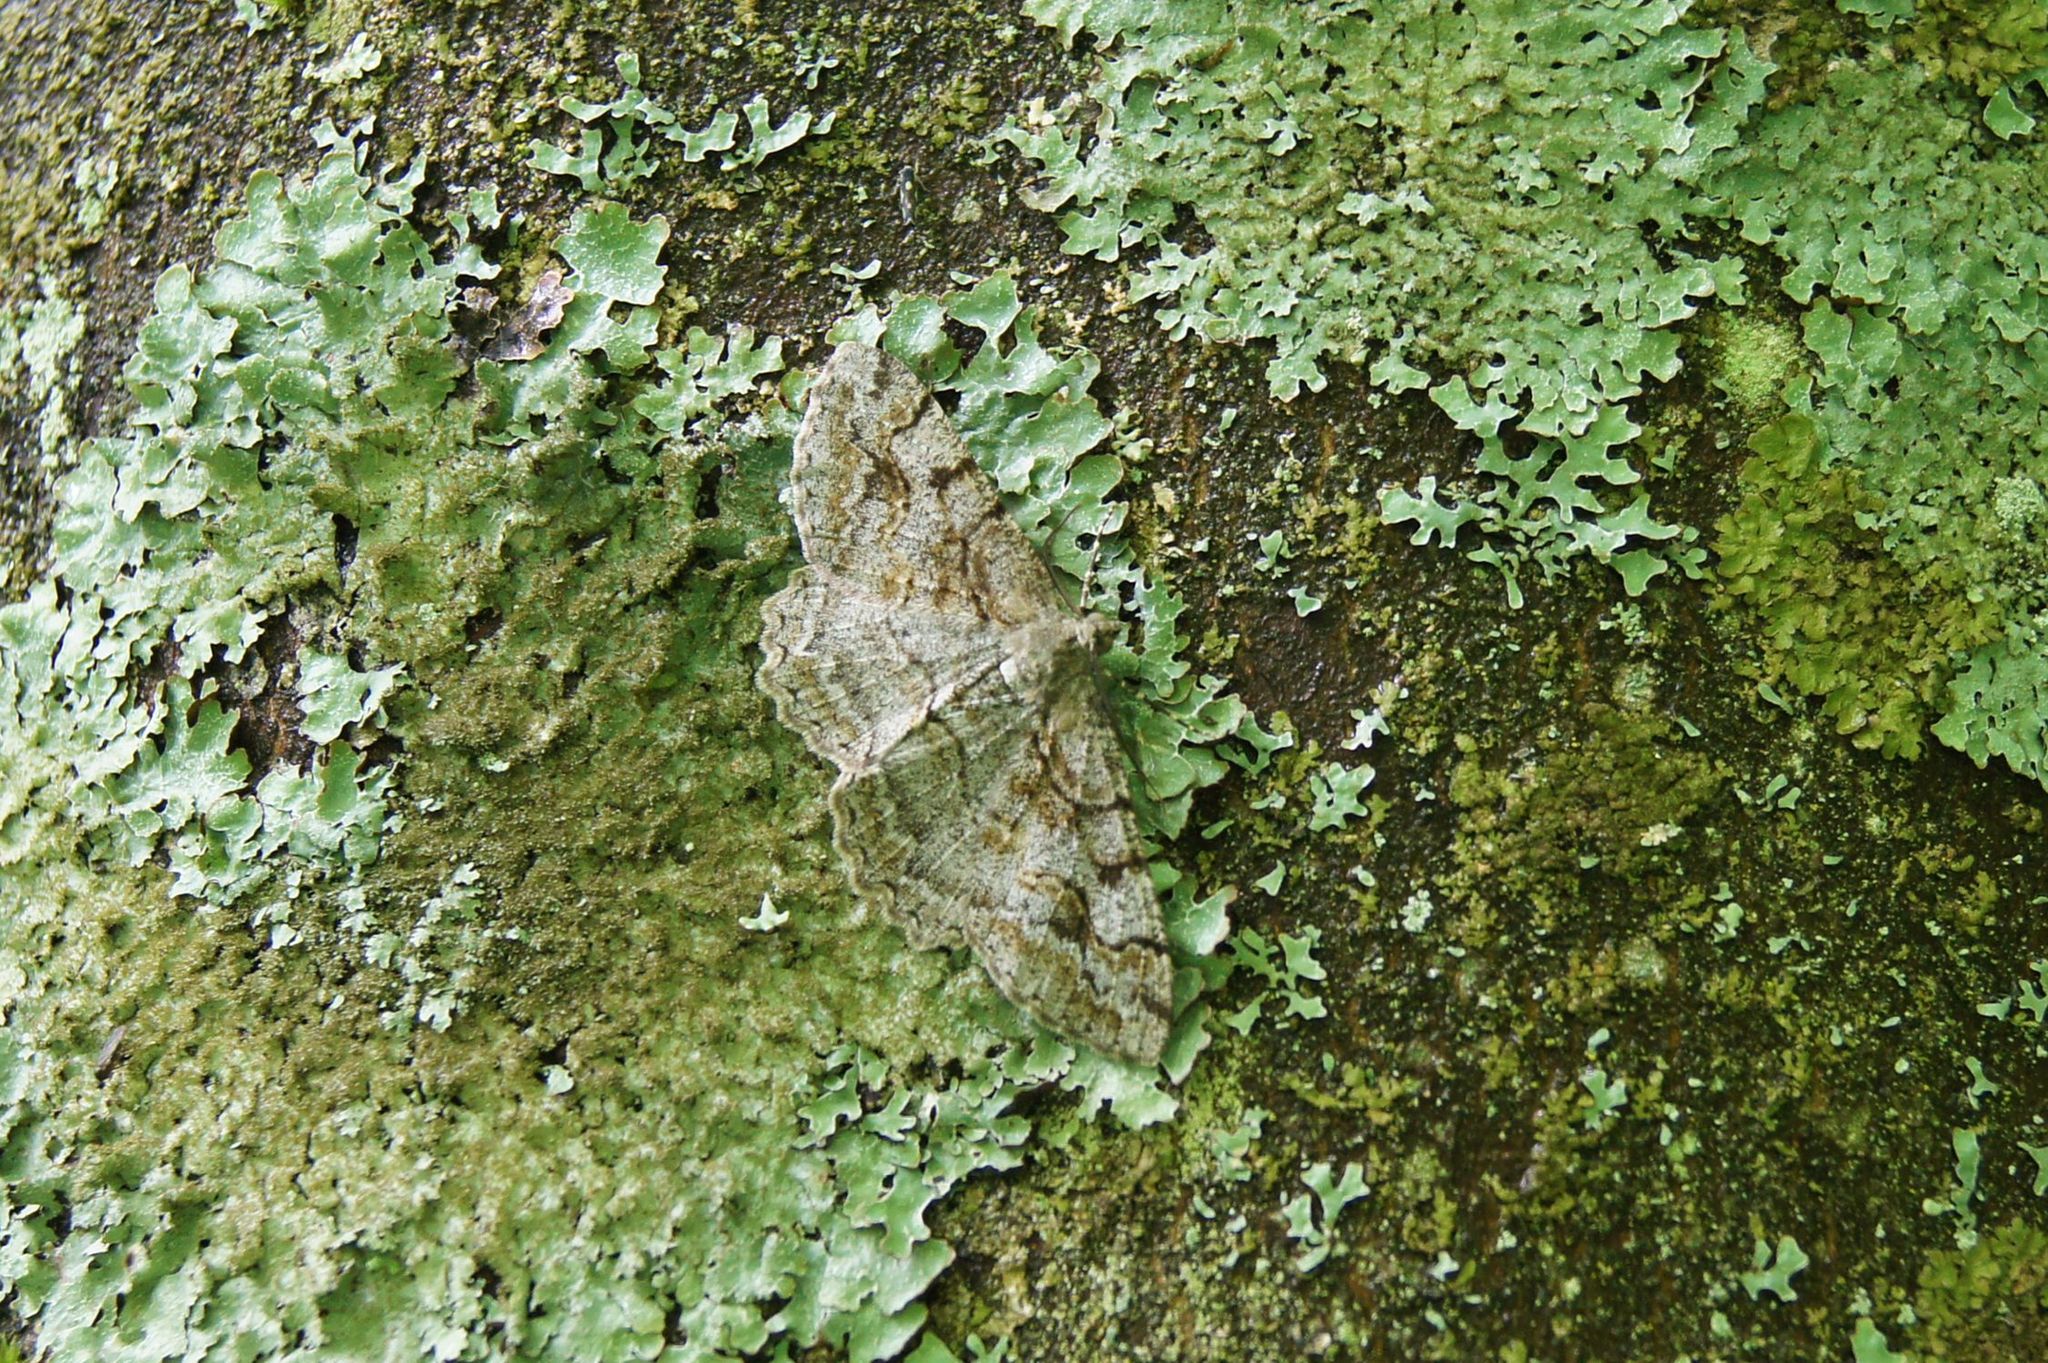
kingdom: Animalia
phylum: Arthropoda
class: Insecta
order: Lepidoptera
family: Geometridae
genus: Alcis
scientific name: Alcis repandata
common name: Mottled beauty
